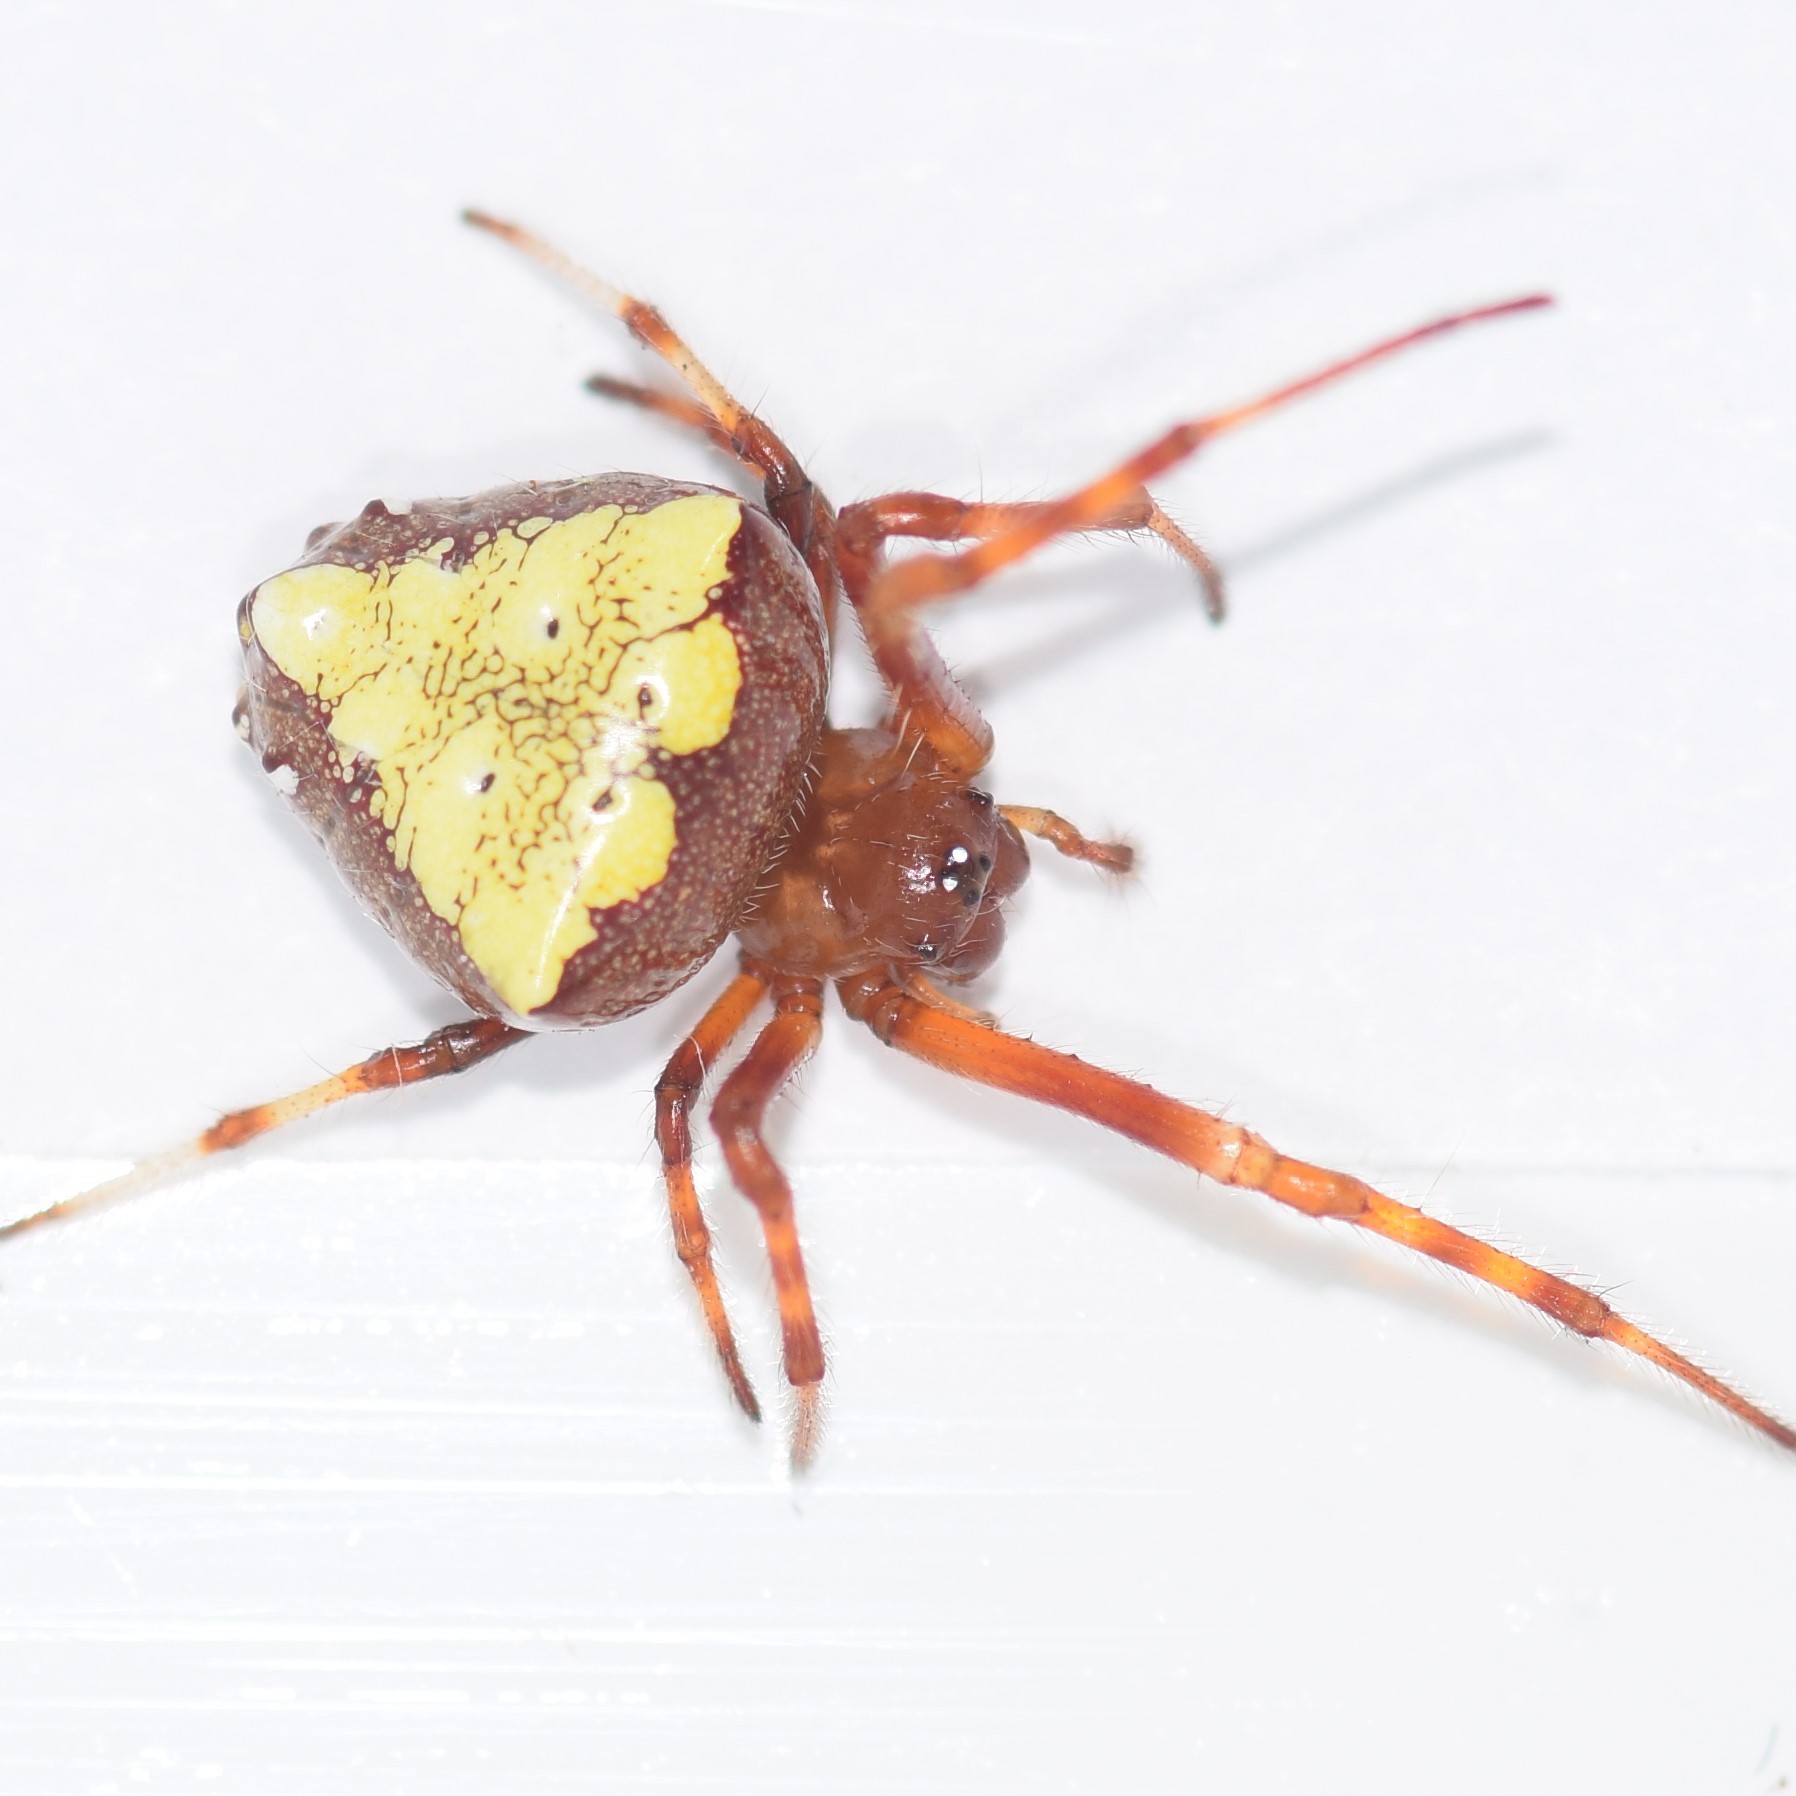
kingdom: Animalia
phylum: Arthropoda
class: Arachnida
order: Araneae
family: Araneidae
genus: Verrucosa
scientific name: Verrucosa arenata
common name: Orb weavers
